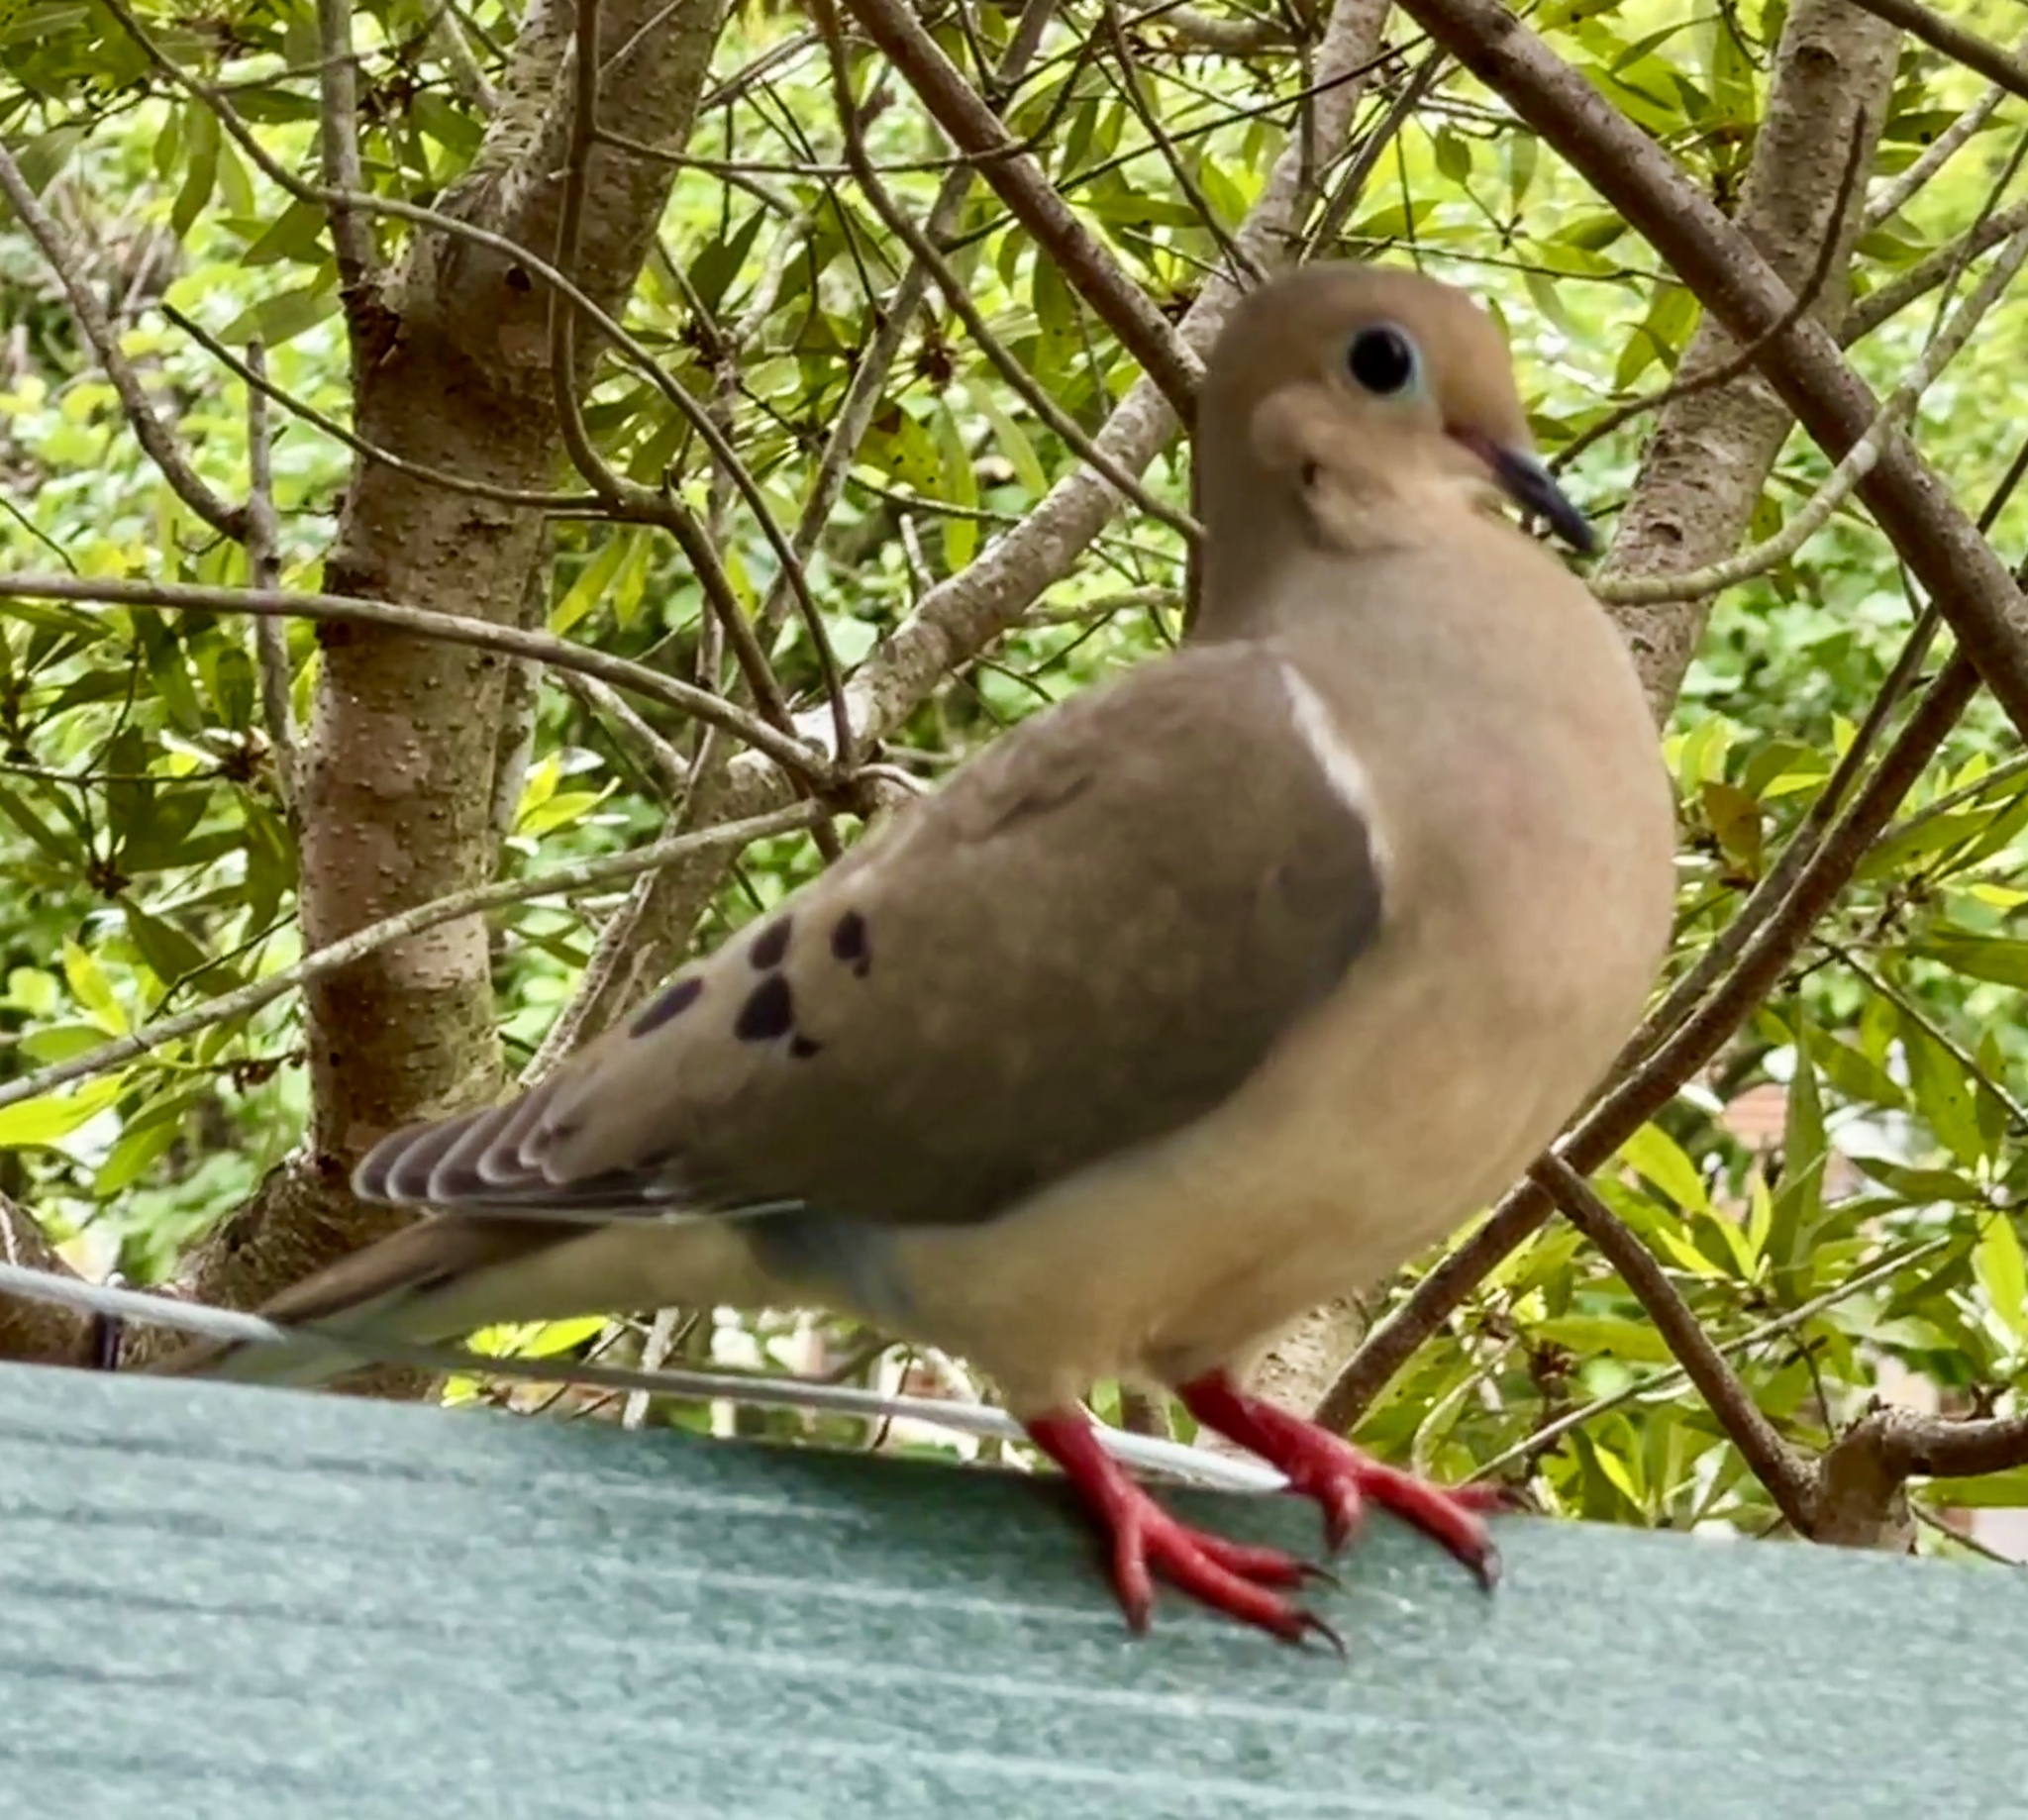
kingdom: Animalia
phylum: Chordata
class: Aves
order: Columbiformes
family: Columbidae
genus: Zenaida
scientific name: Zenaida macroura
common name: Mourning dove
